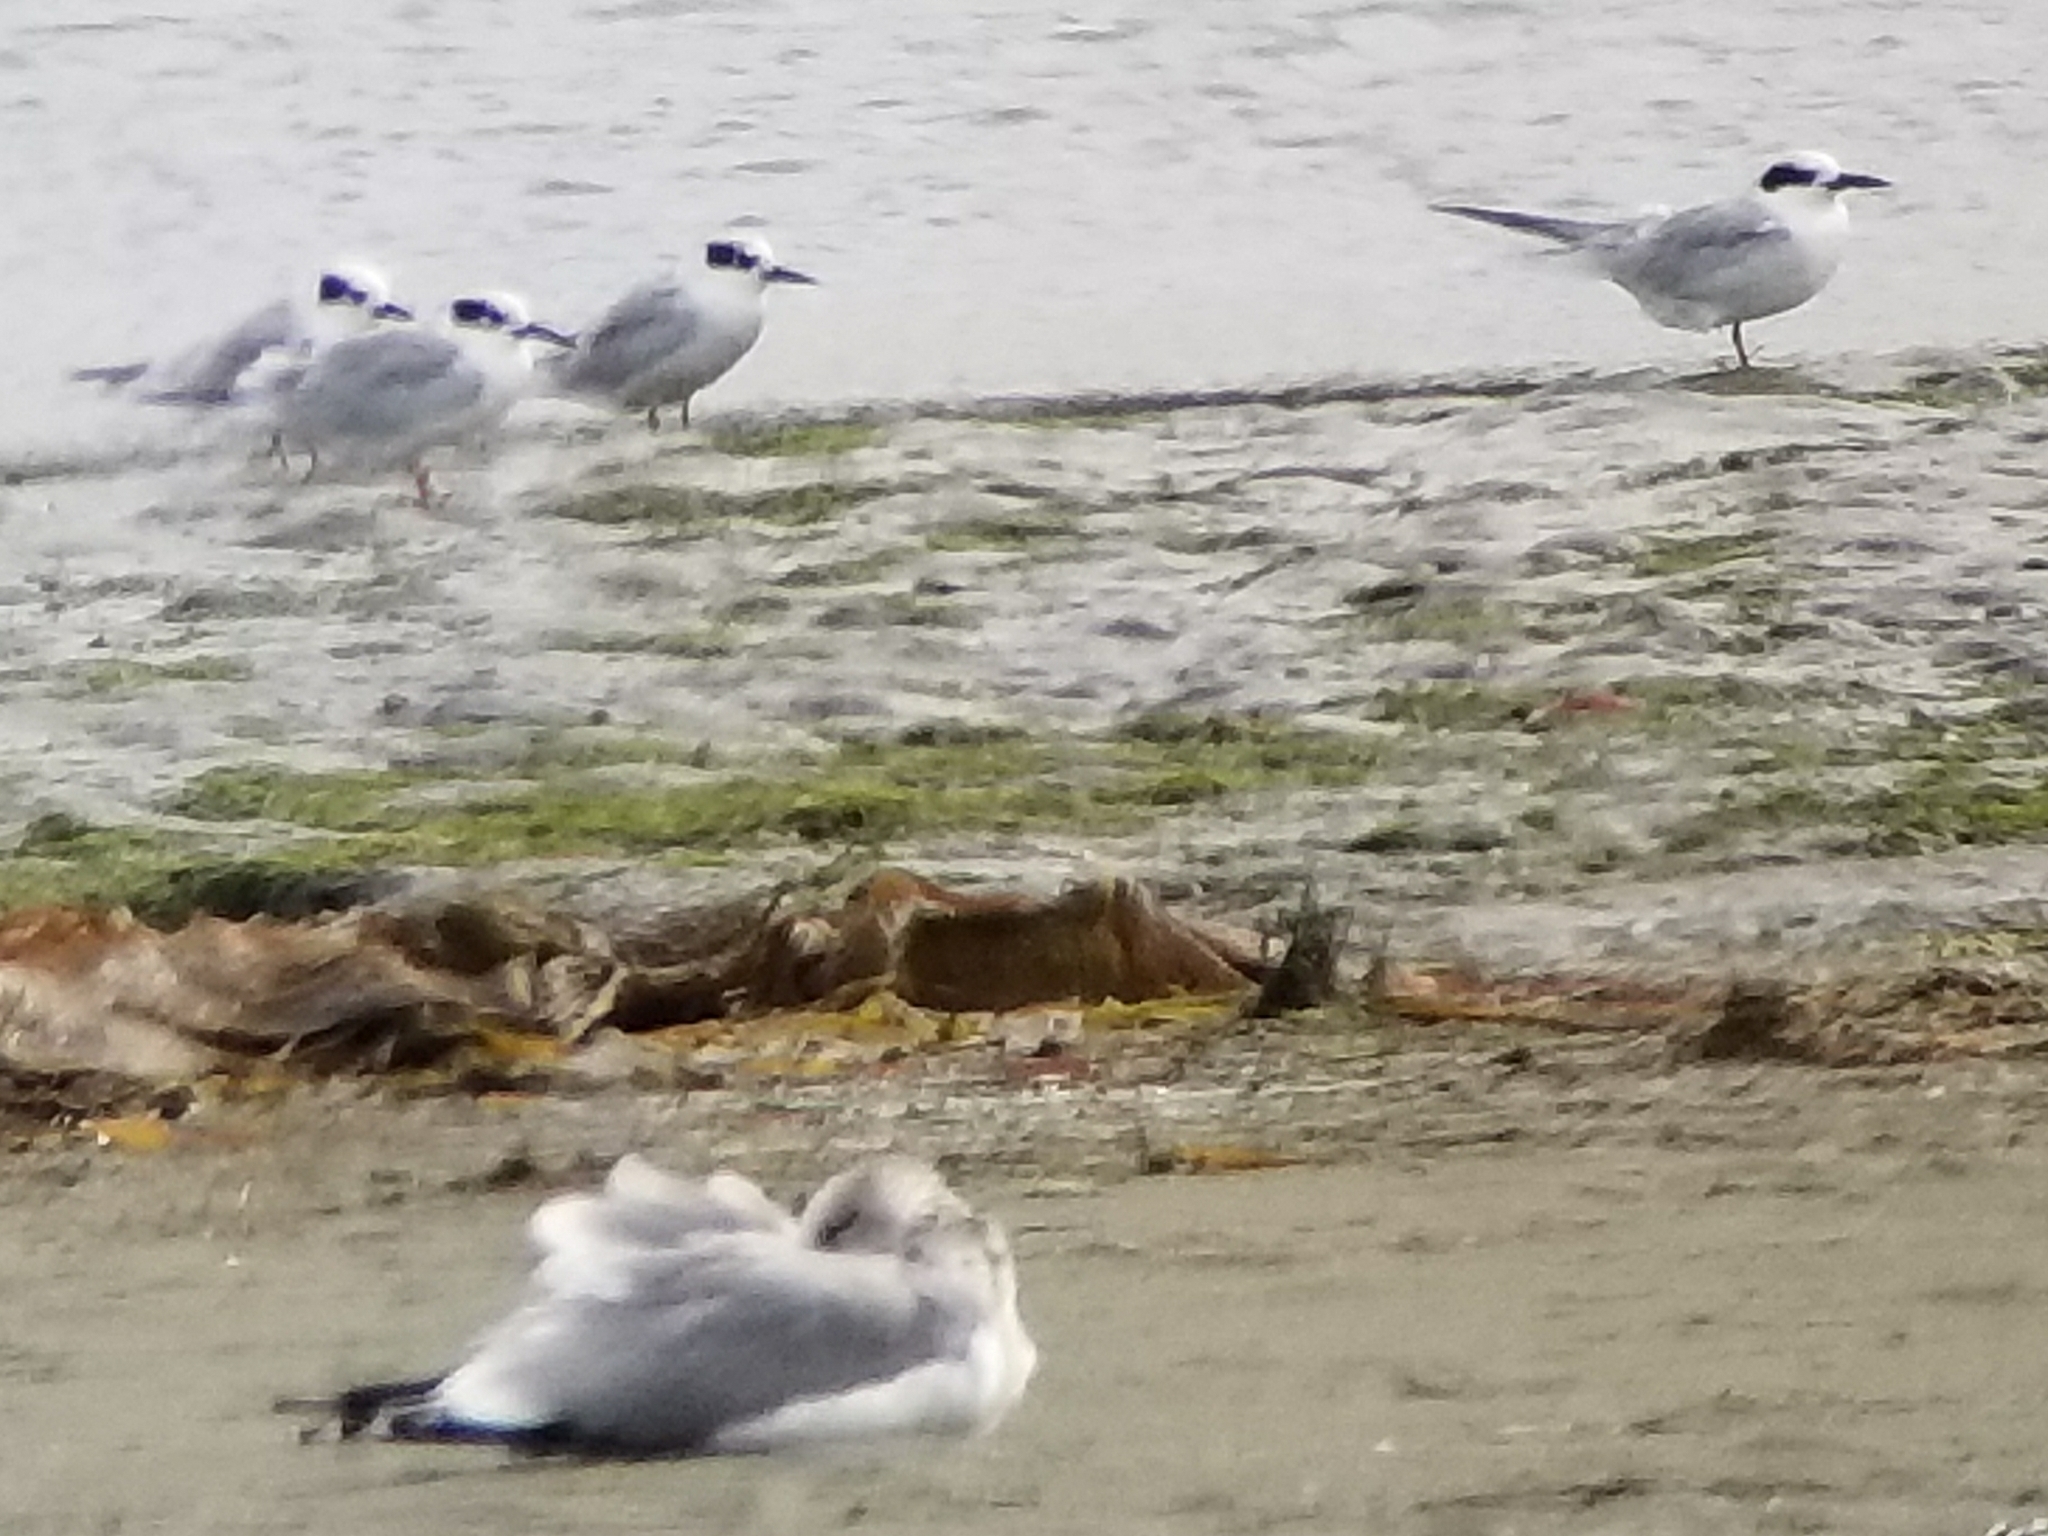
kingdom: Animalia
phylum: Chordata
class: Aves
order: Charadriiformes
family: Laridae
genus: Sterna
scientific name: Sterna forsteri
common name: Forster's tern
